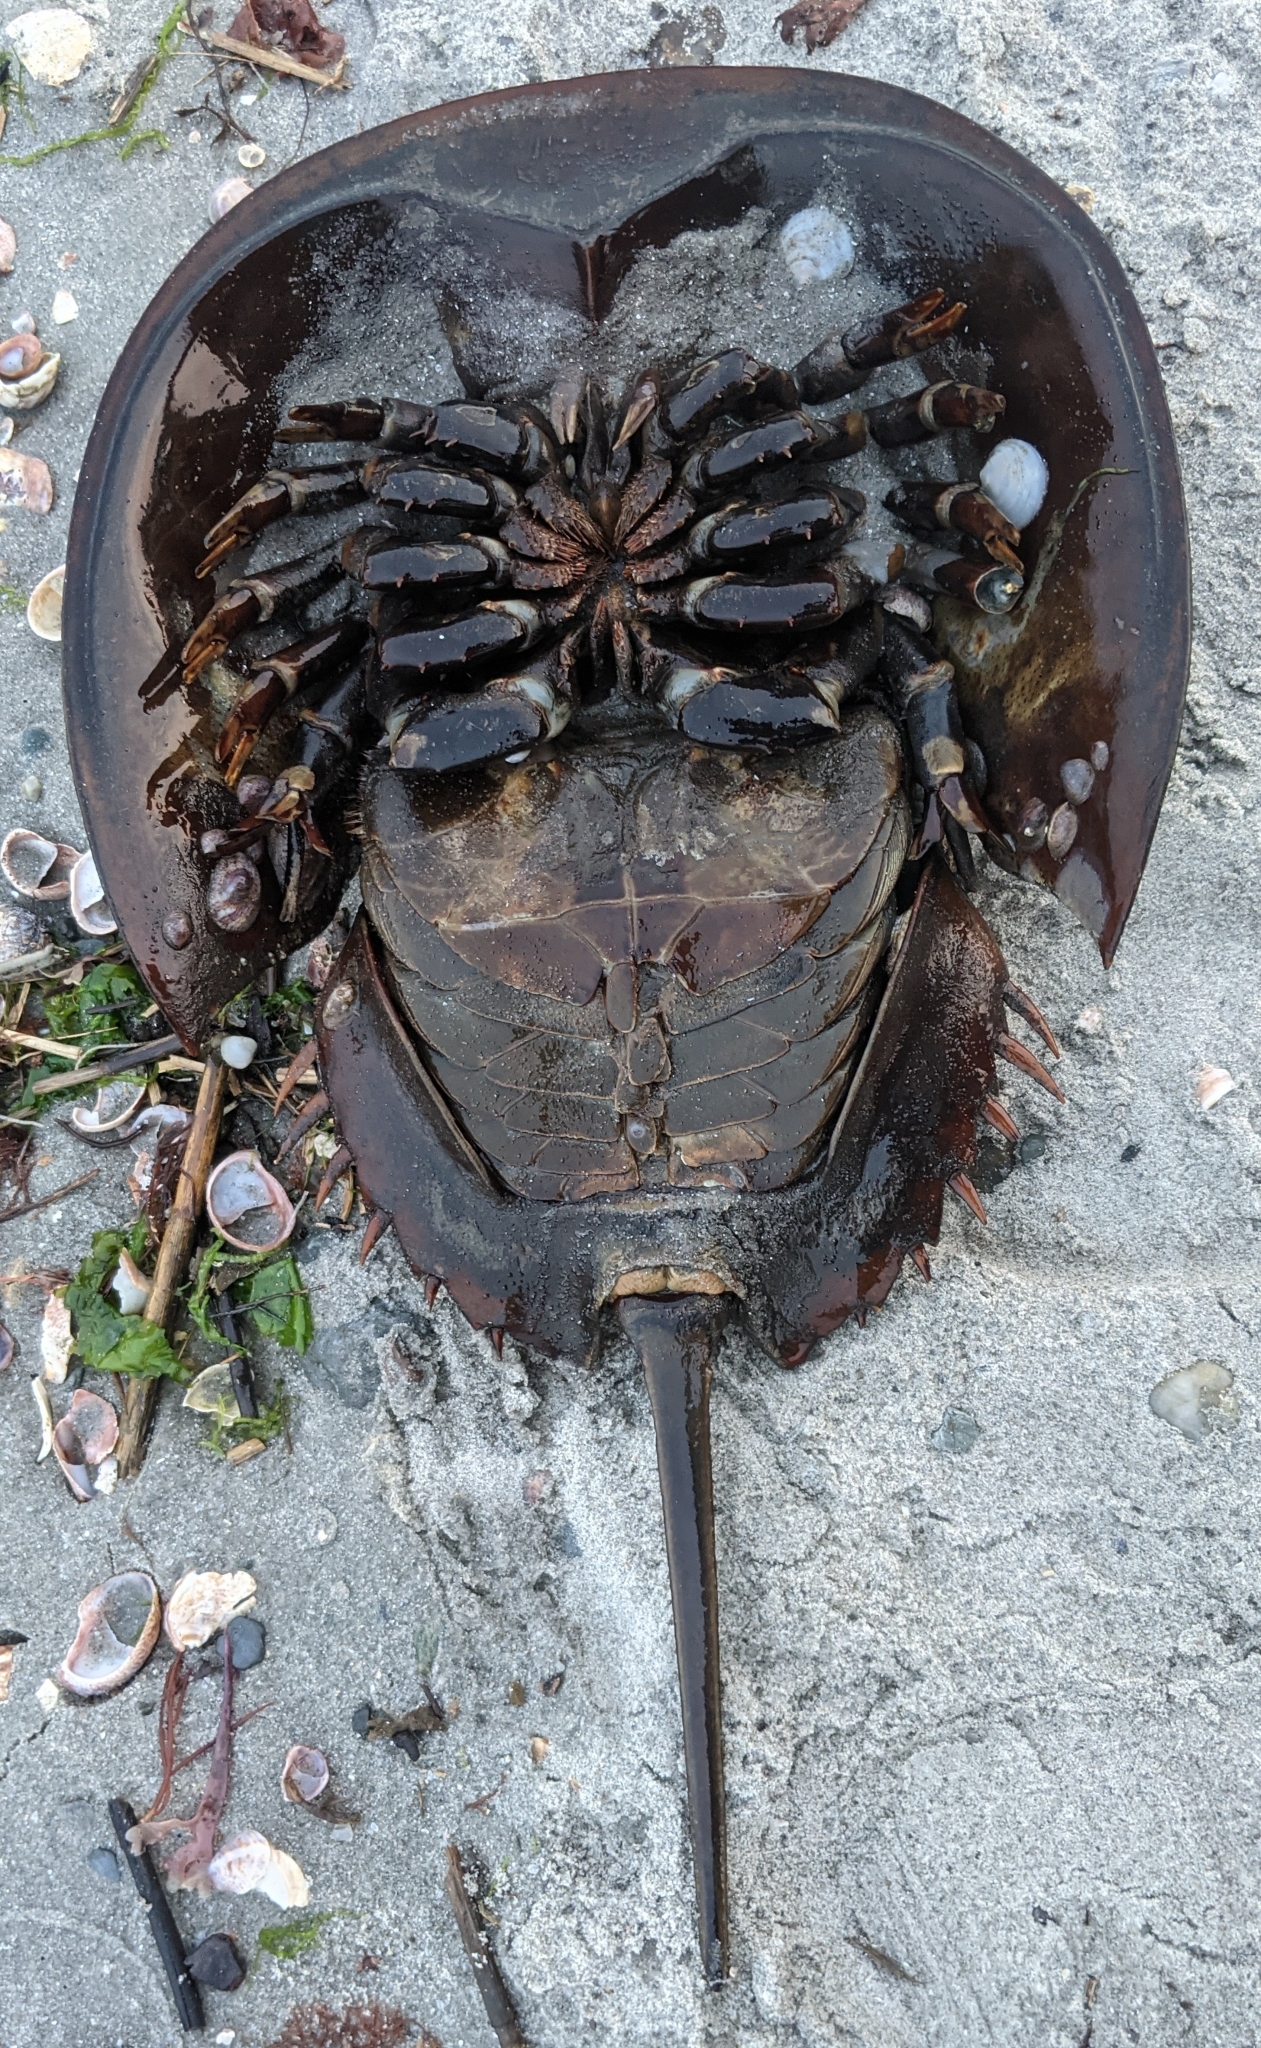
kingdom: Animalia
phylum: Arthropoda
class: Merostomata
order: Xiphosurida
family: Limulidae
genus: Limulus
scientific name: Limulus polyphemus
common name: Horseshoe crab
